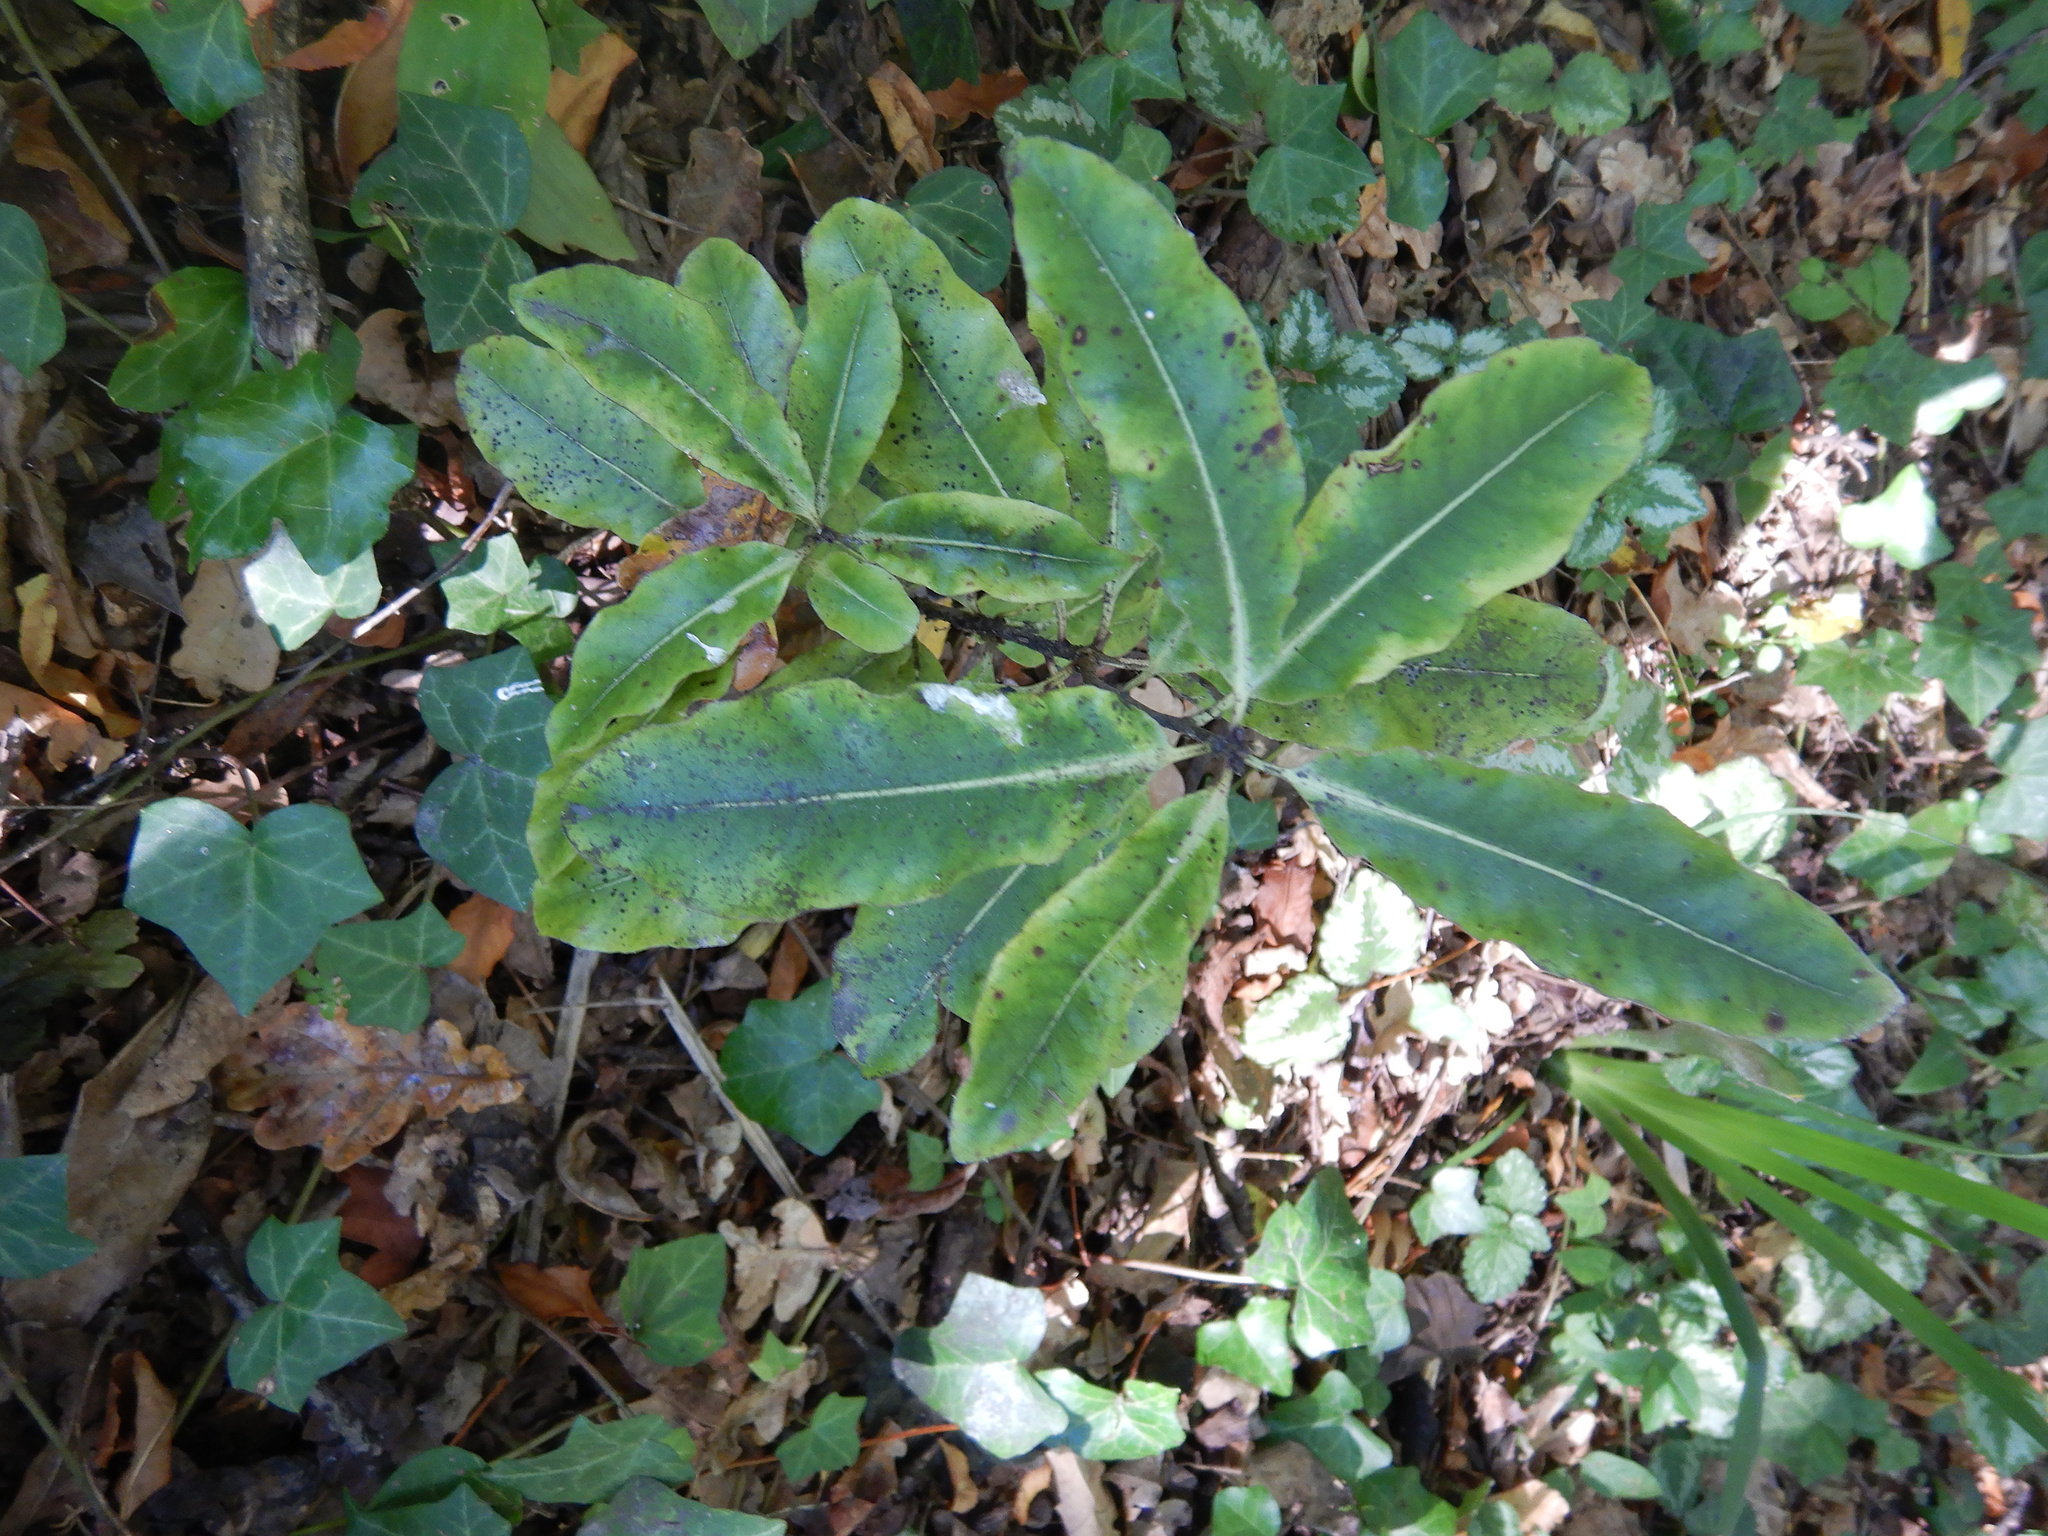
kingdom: Plantae
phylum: Tracheophyta
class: Magnoliopsida
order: Apiales
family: Pittosporaceae
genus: Pittosporum
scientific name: Pittosporum eugenioides
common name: Lemonwood
